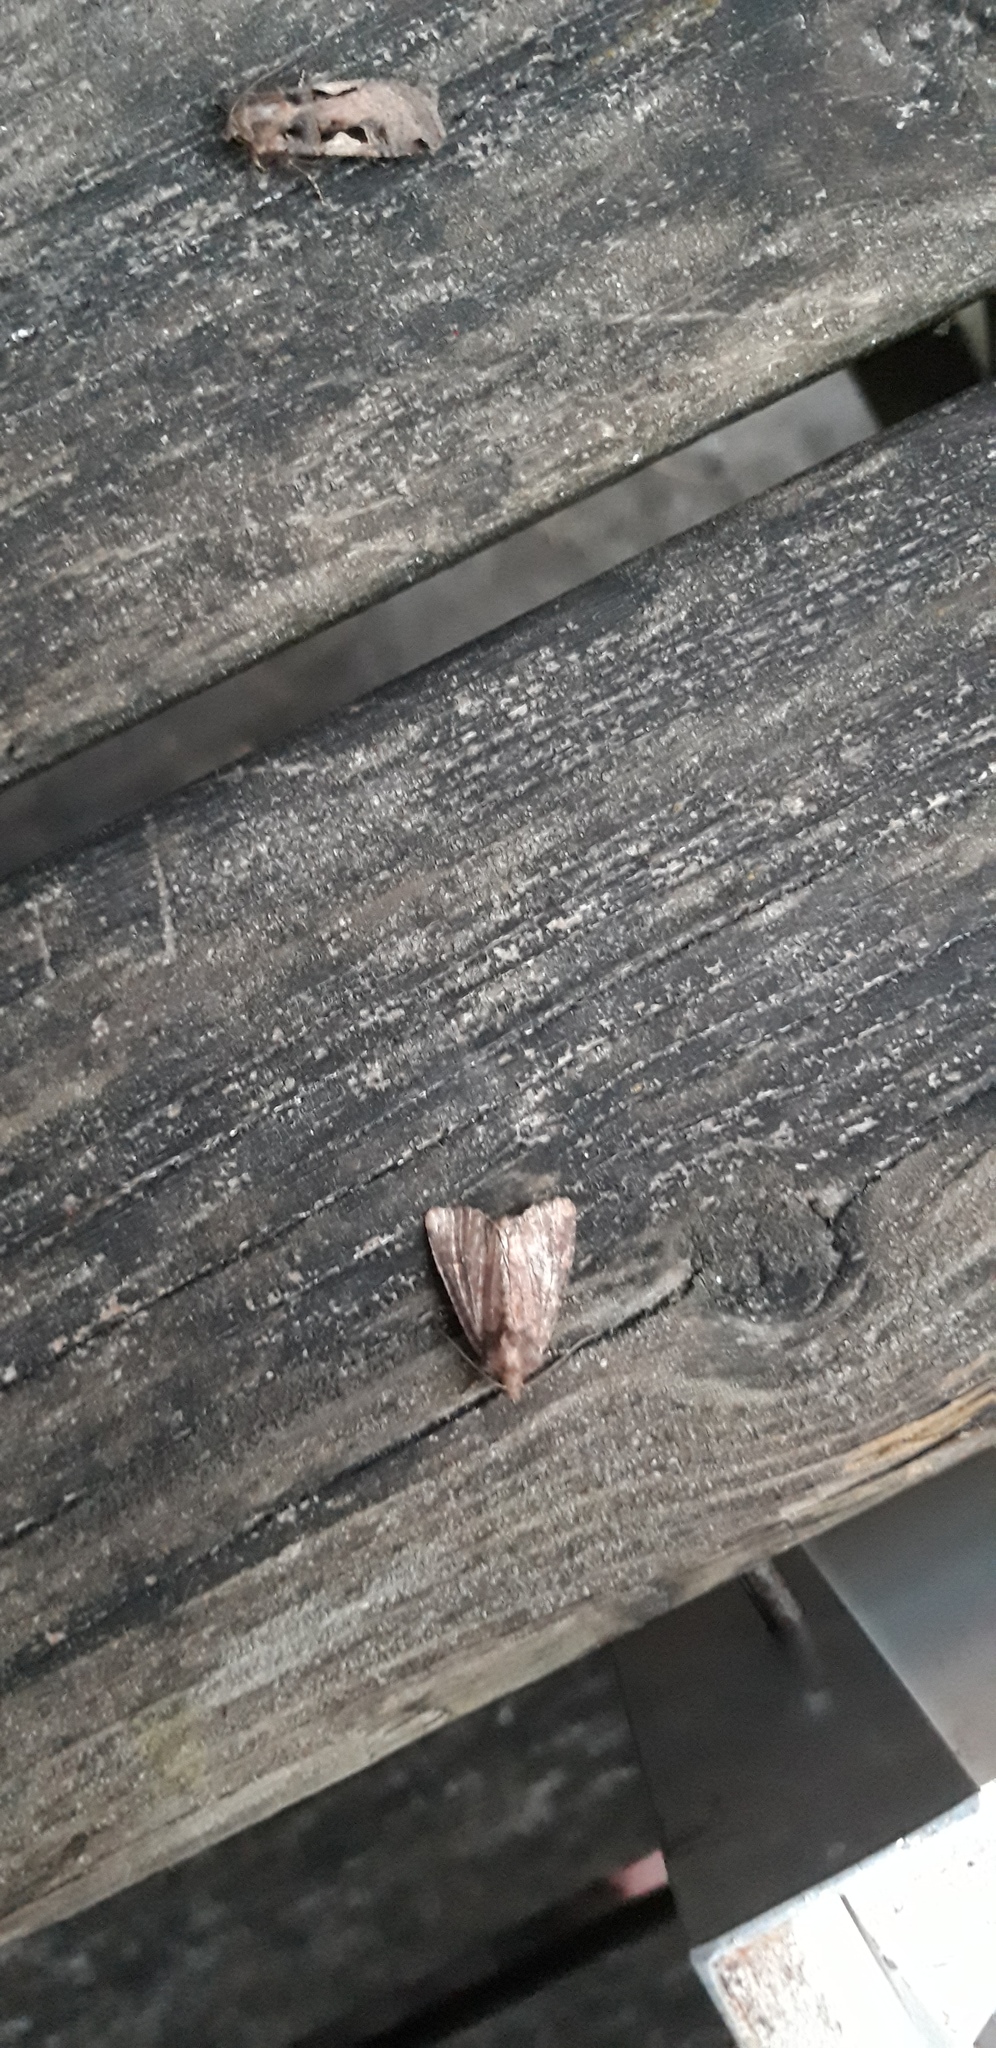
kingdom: Animalia
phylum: Arthropoda
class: Insecta
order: Lepidoptera
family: Noctuidae
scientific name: Noctuidae
